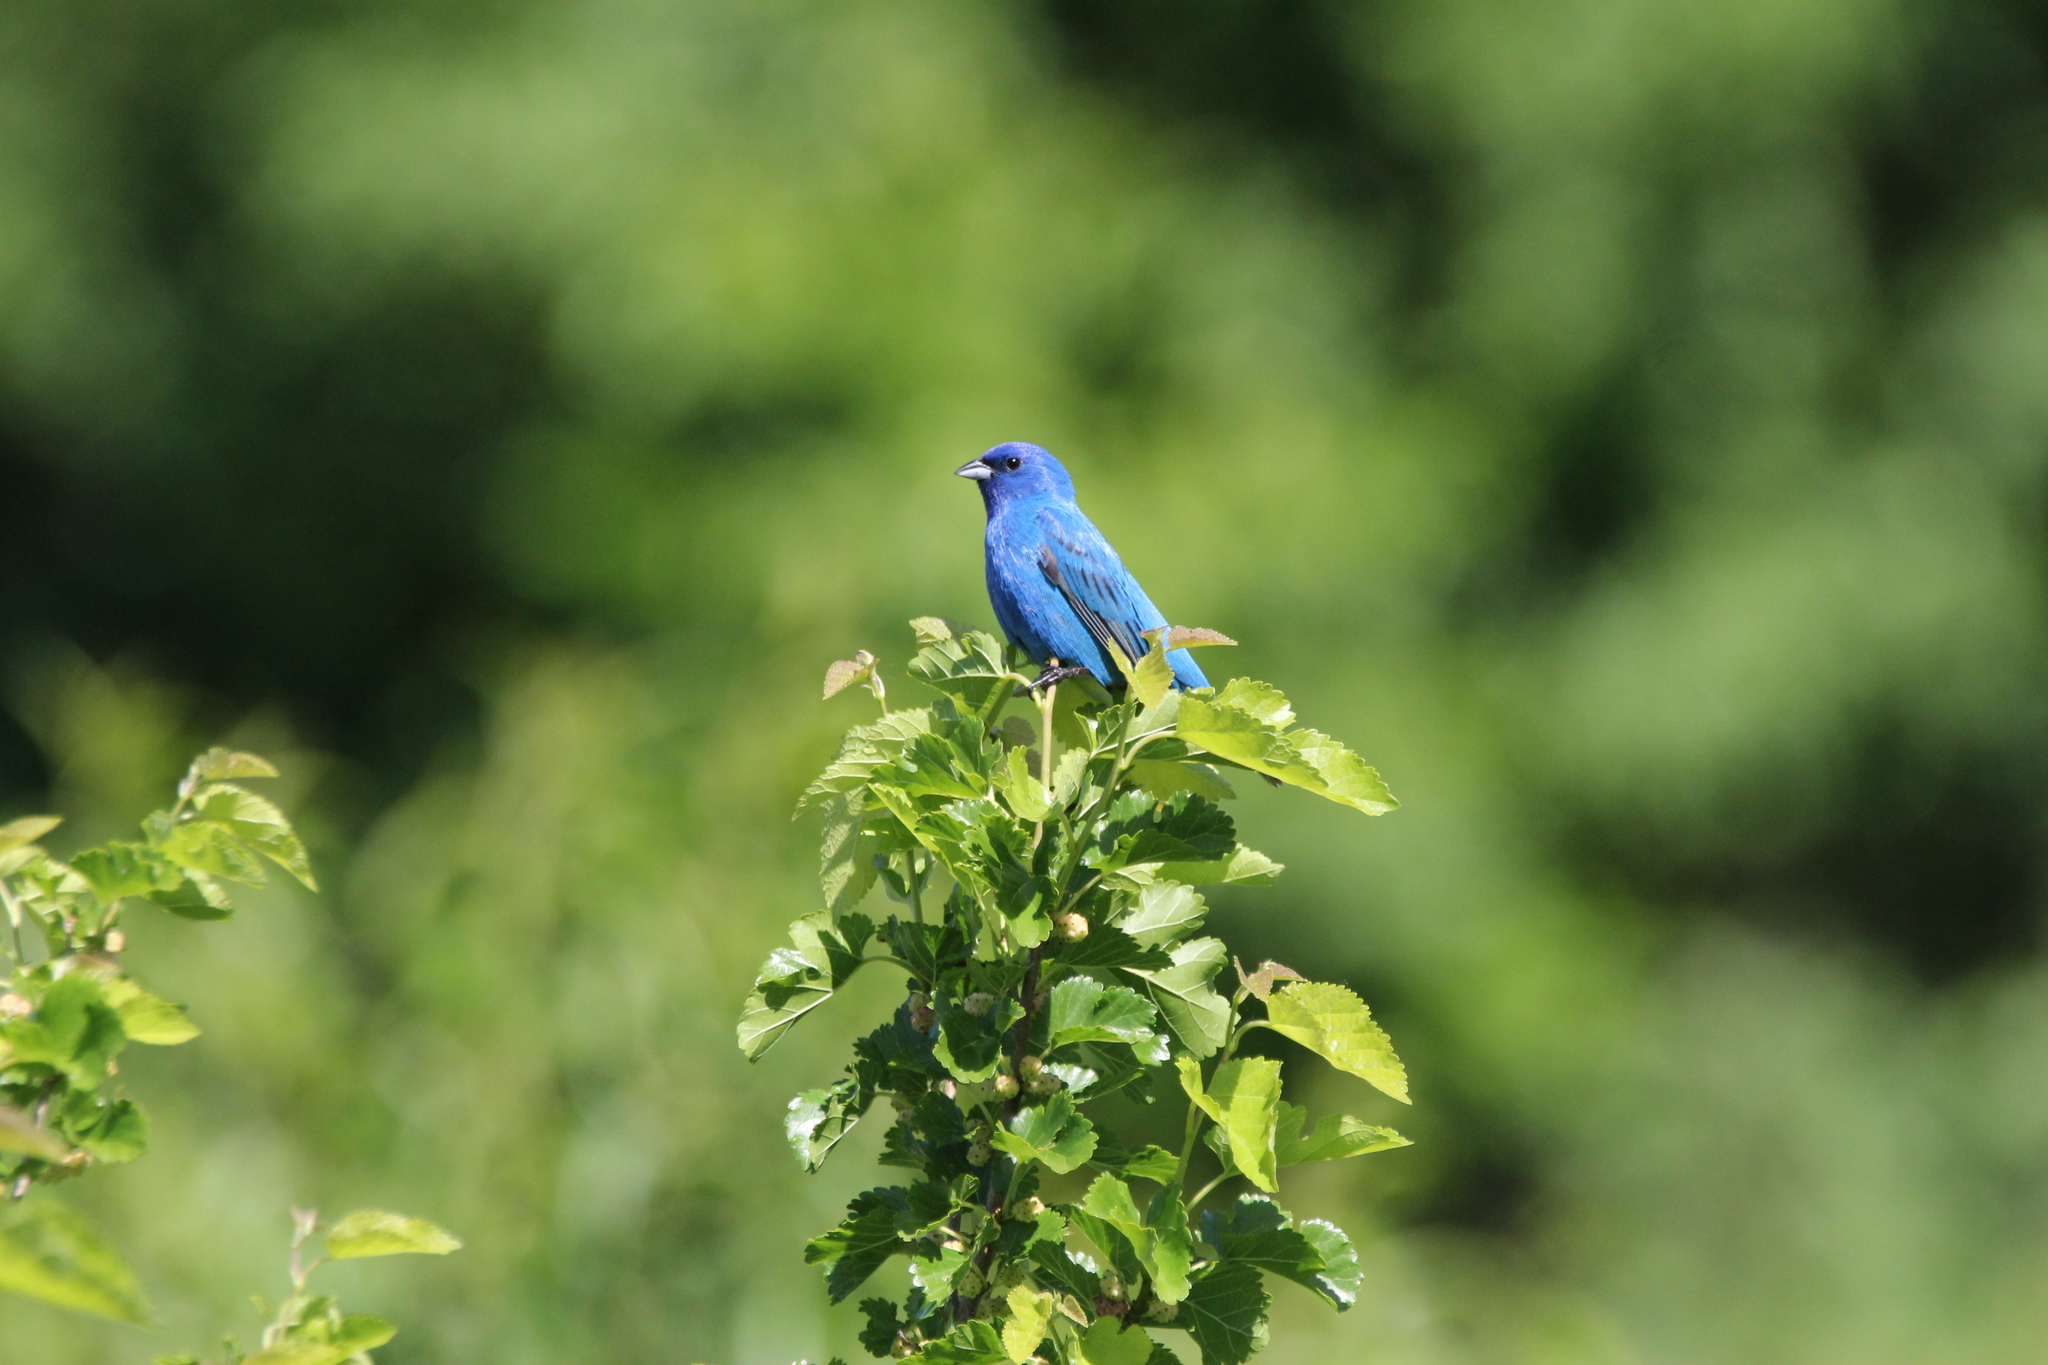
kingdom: Animalia
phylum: Chordata
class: Aves
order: Passeriformes
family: Cardinalidae
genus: Passerina
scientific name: Passerina cyanea
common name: Indigo bunting
